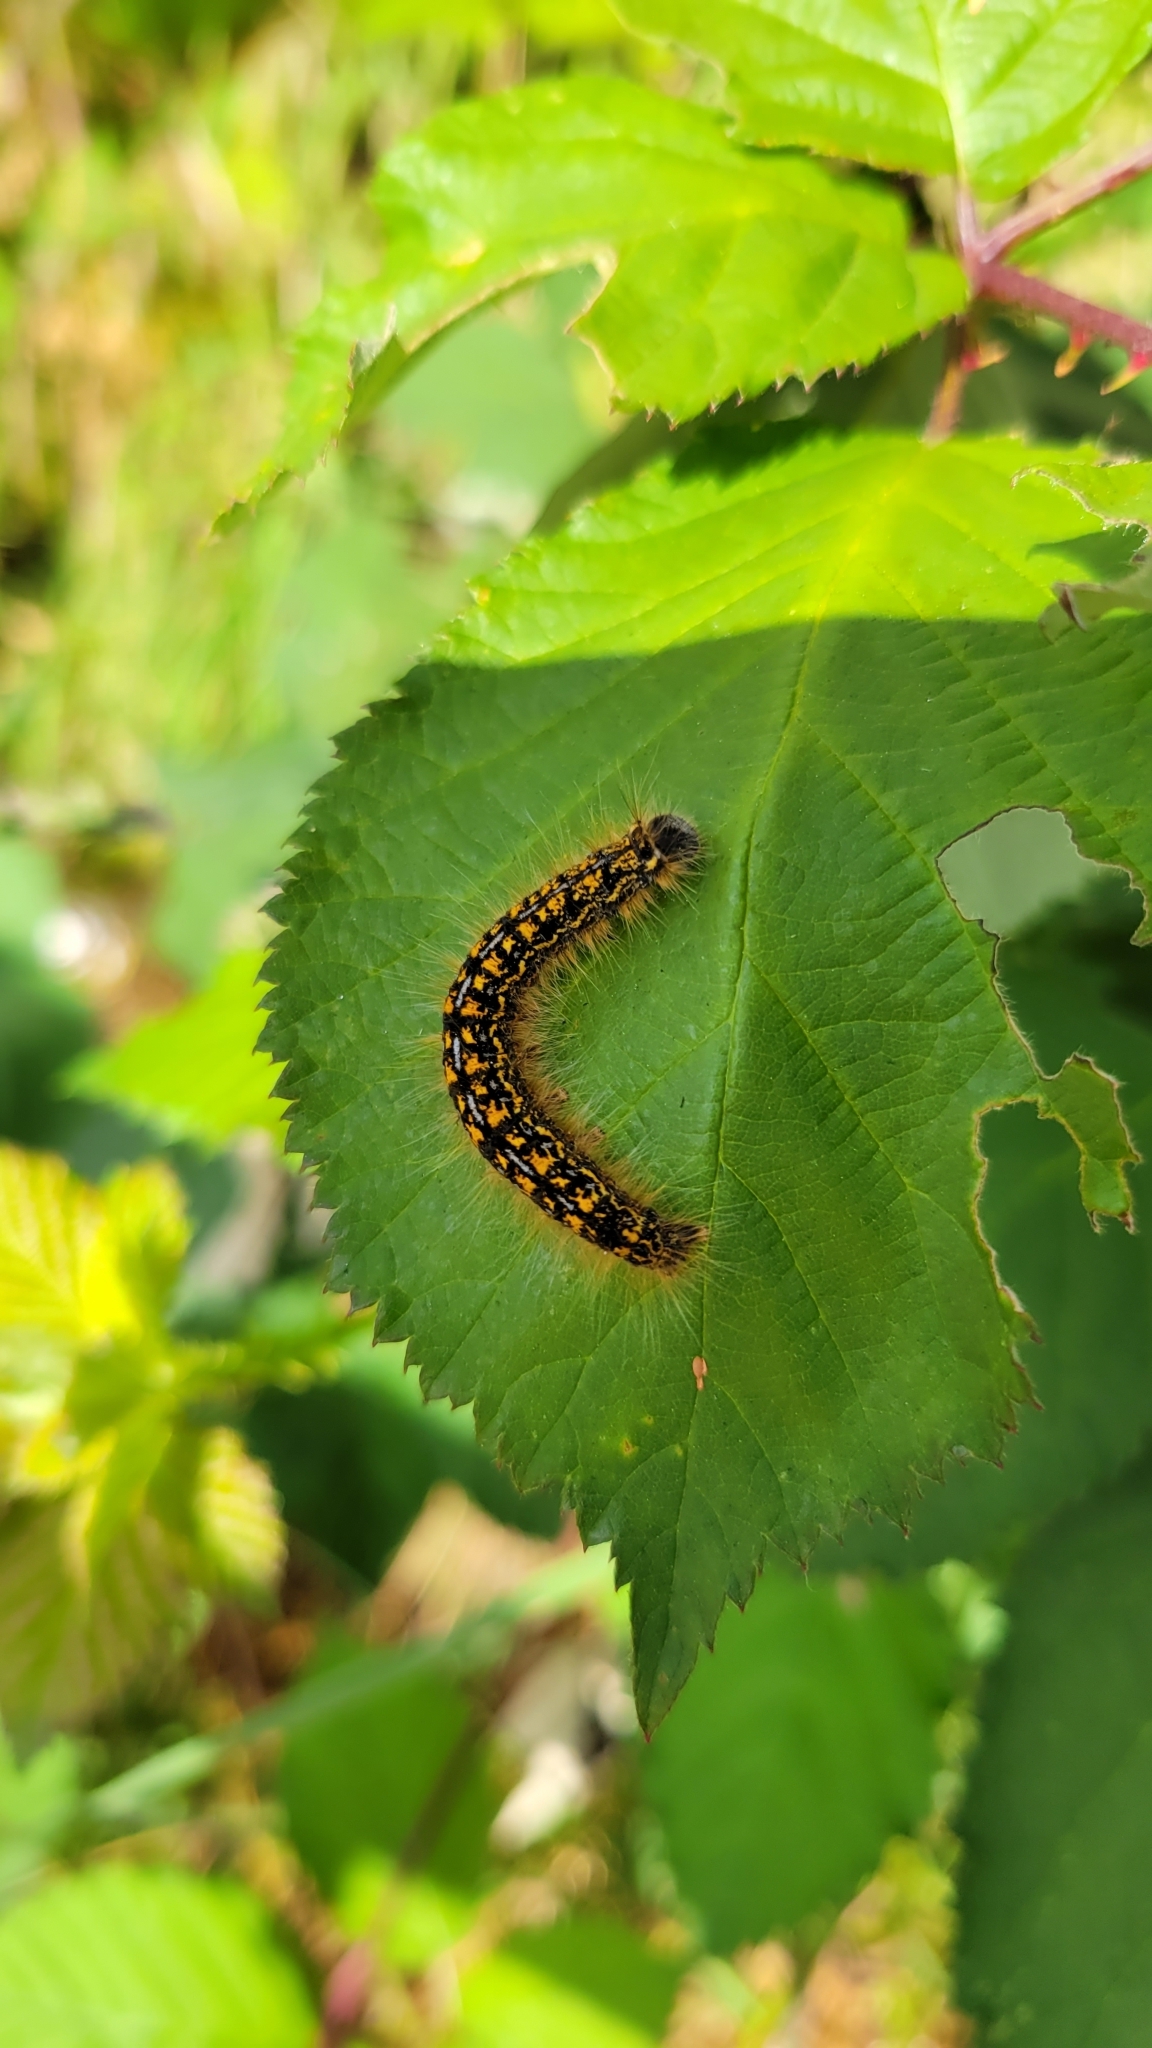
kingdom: Animalia
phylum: Arthropoda
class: Insecta
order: Lepidoptera
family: Lasiocampidae
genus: Malacosoma
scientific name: Malacosoma californica
